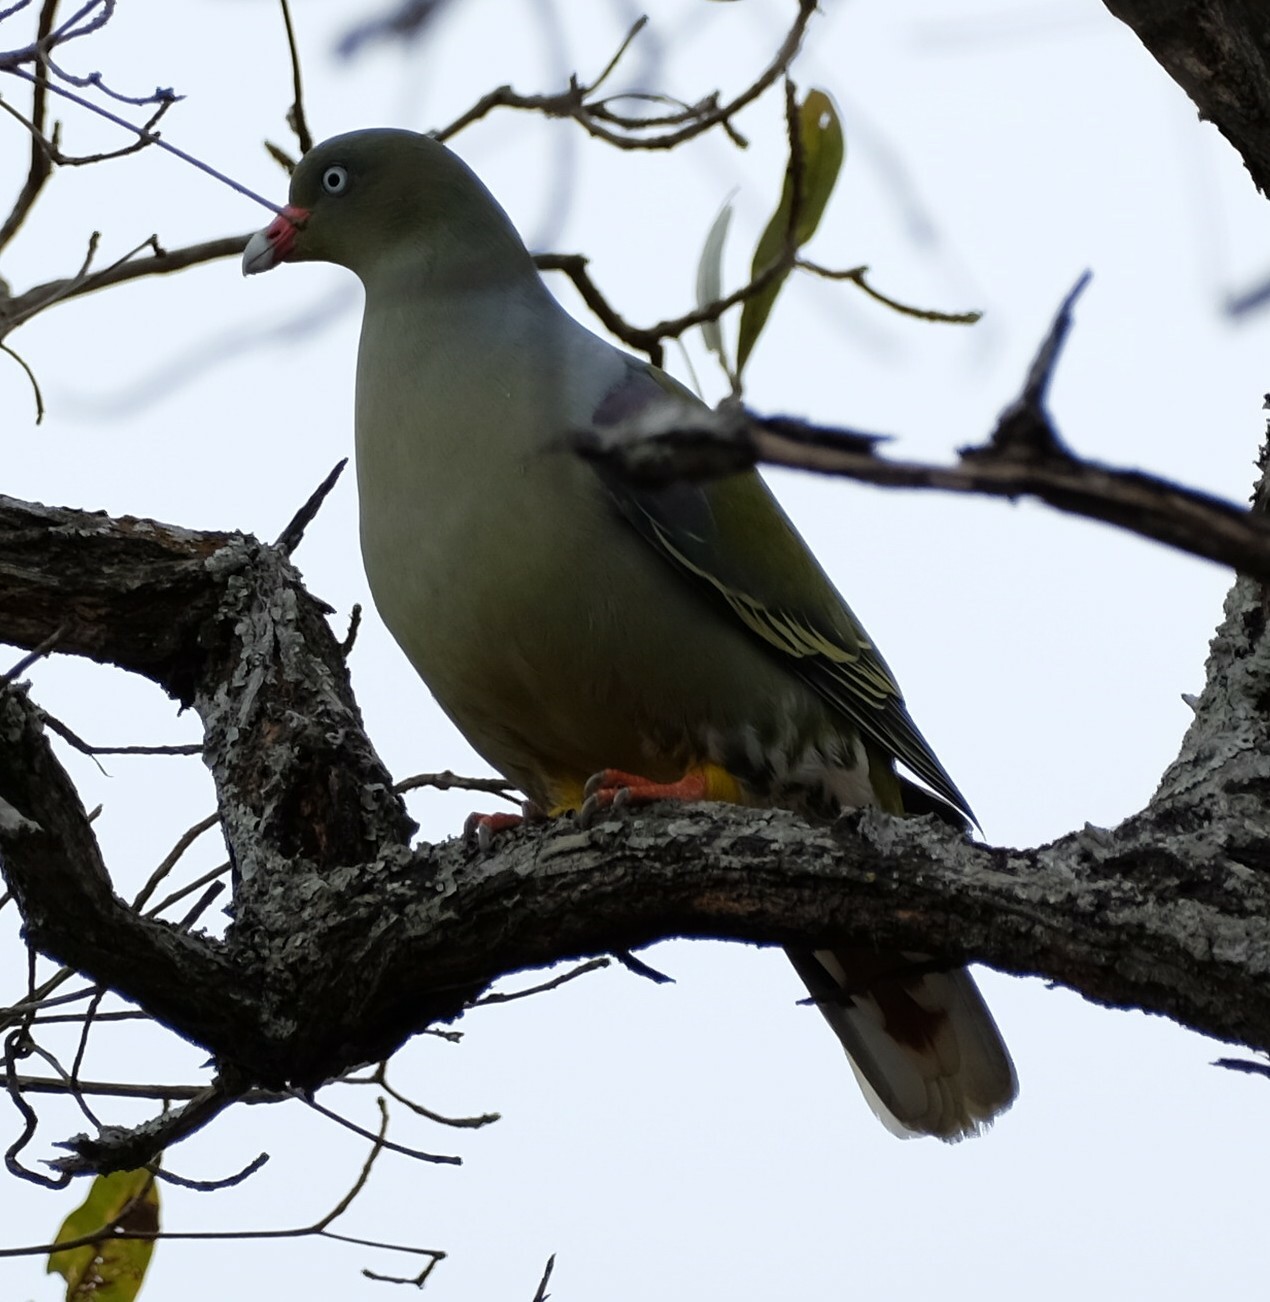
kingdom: Animalia
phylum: Chordata
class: Aves
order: Columbiformes
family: Columbidae
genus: Treron
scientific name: Treron calvus
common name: African green pigeon
